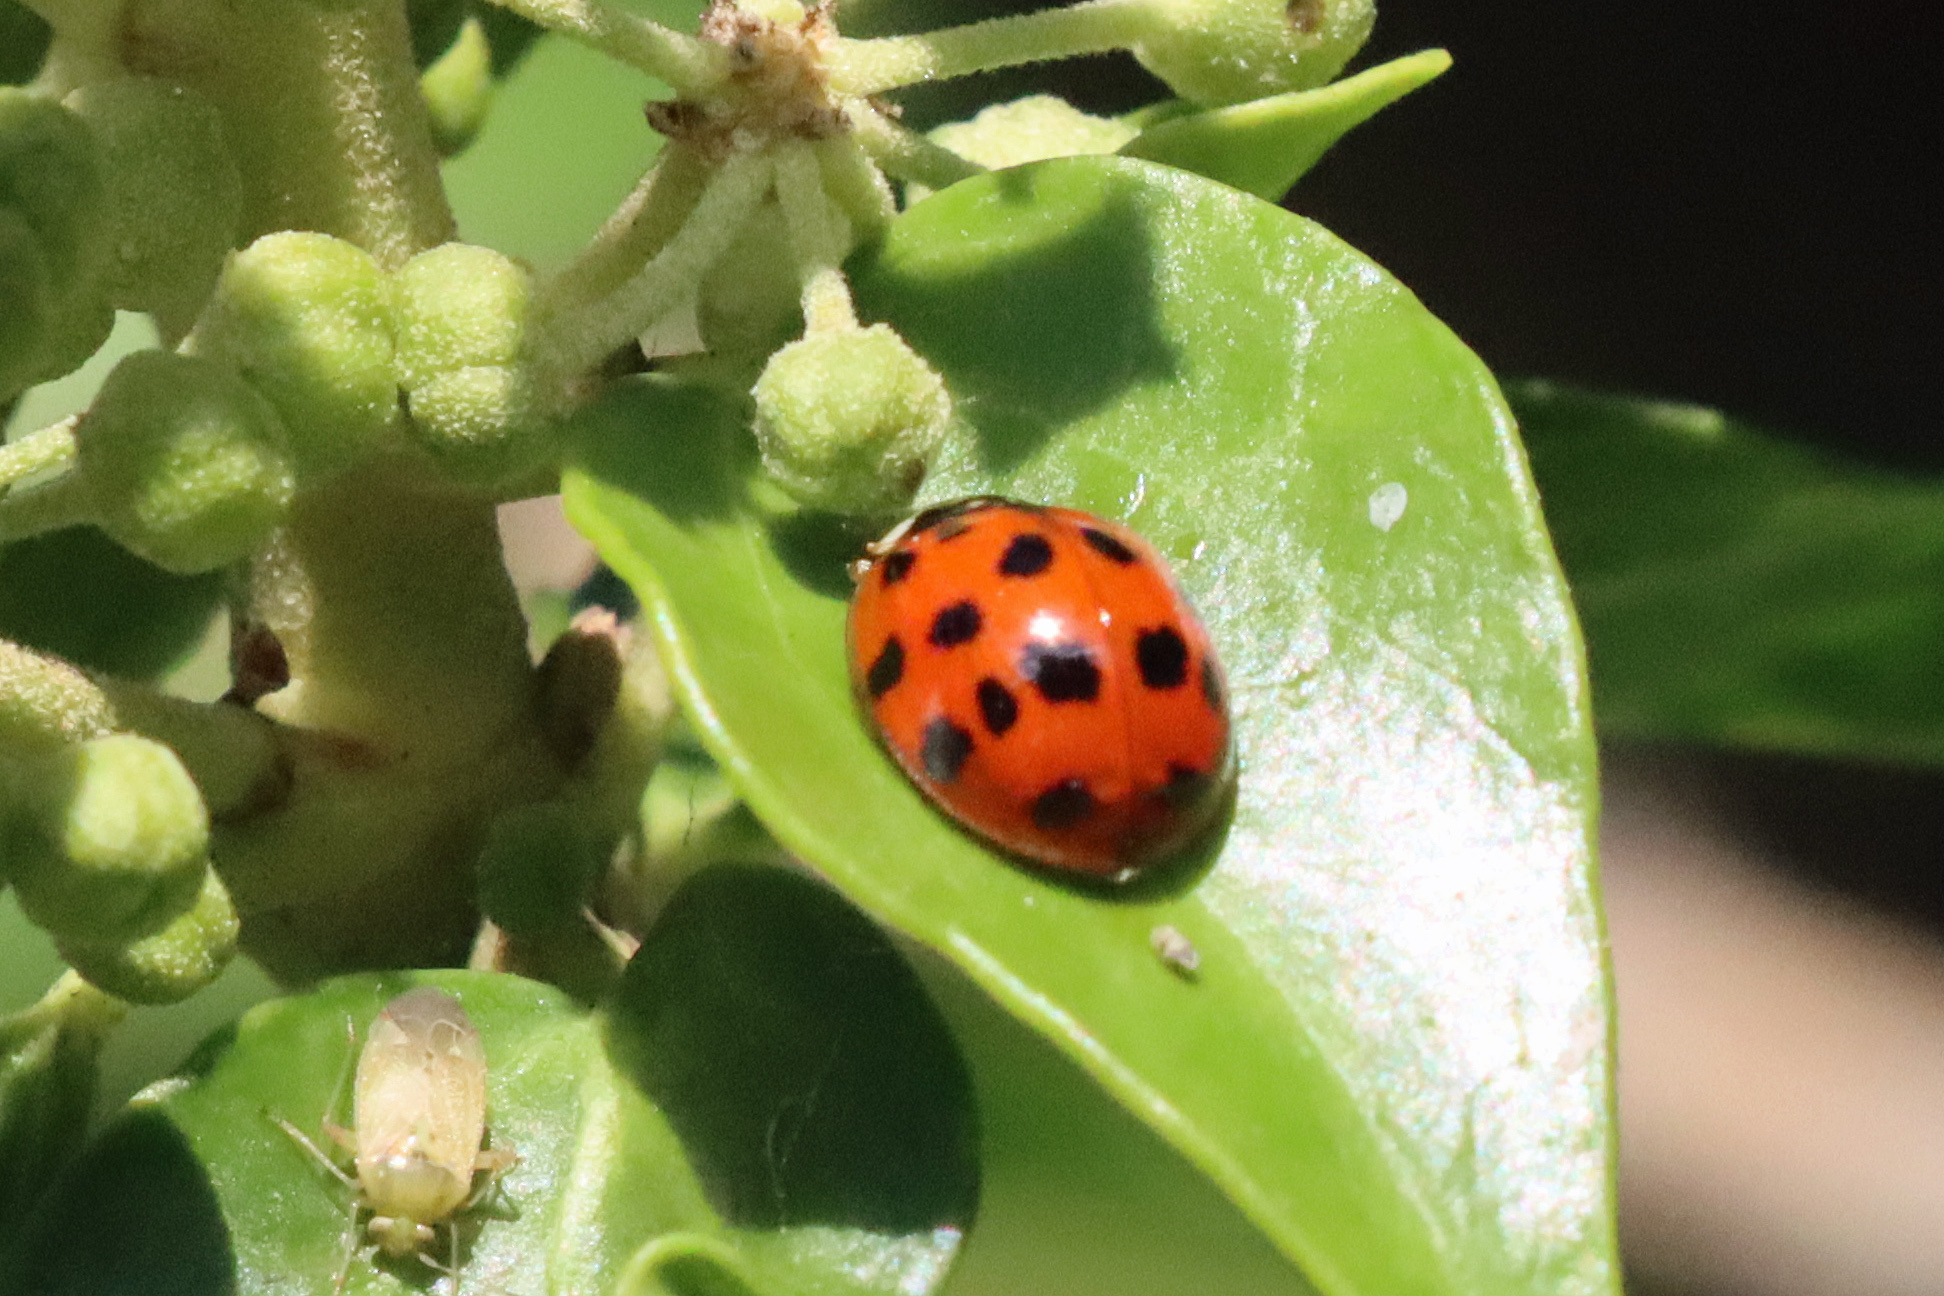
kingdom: Animalia
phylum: Arthropoda
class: Insecta
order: Coleoptera
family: Coccinellidae
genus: Harmonia
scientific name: Harmonia axyridis
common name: Harlequin ladybird
